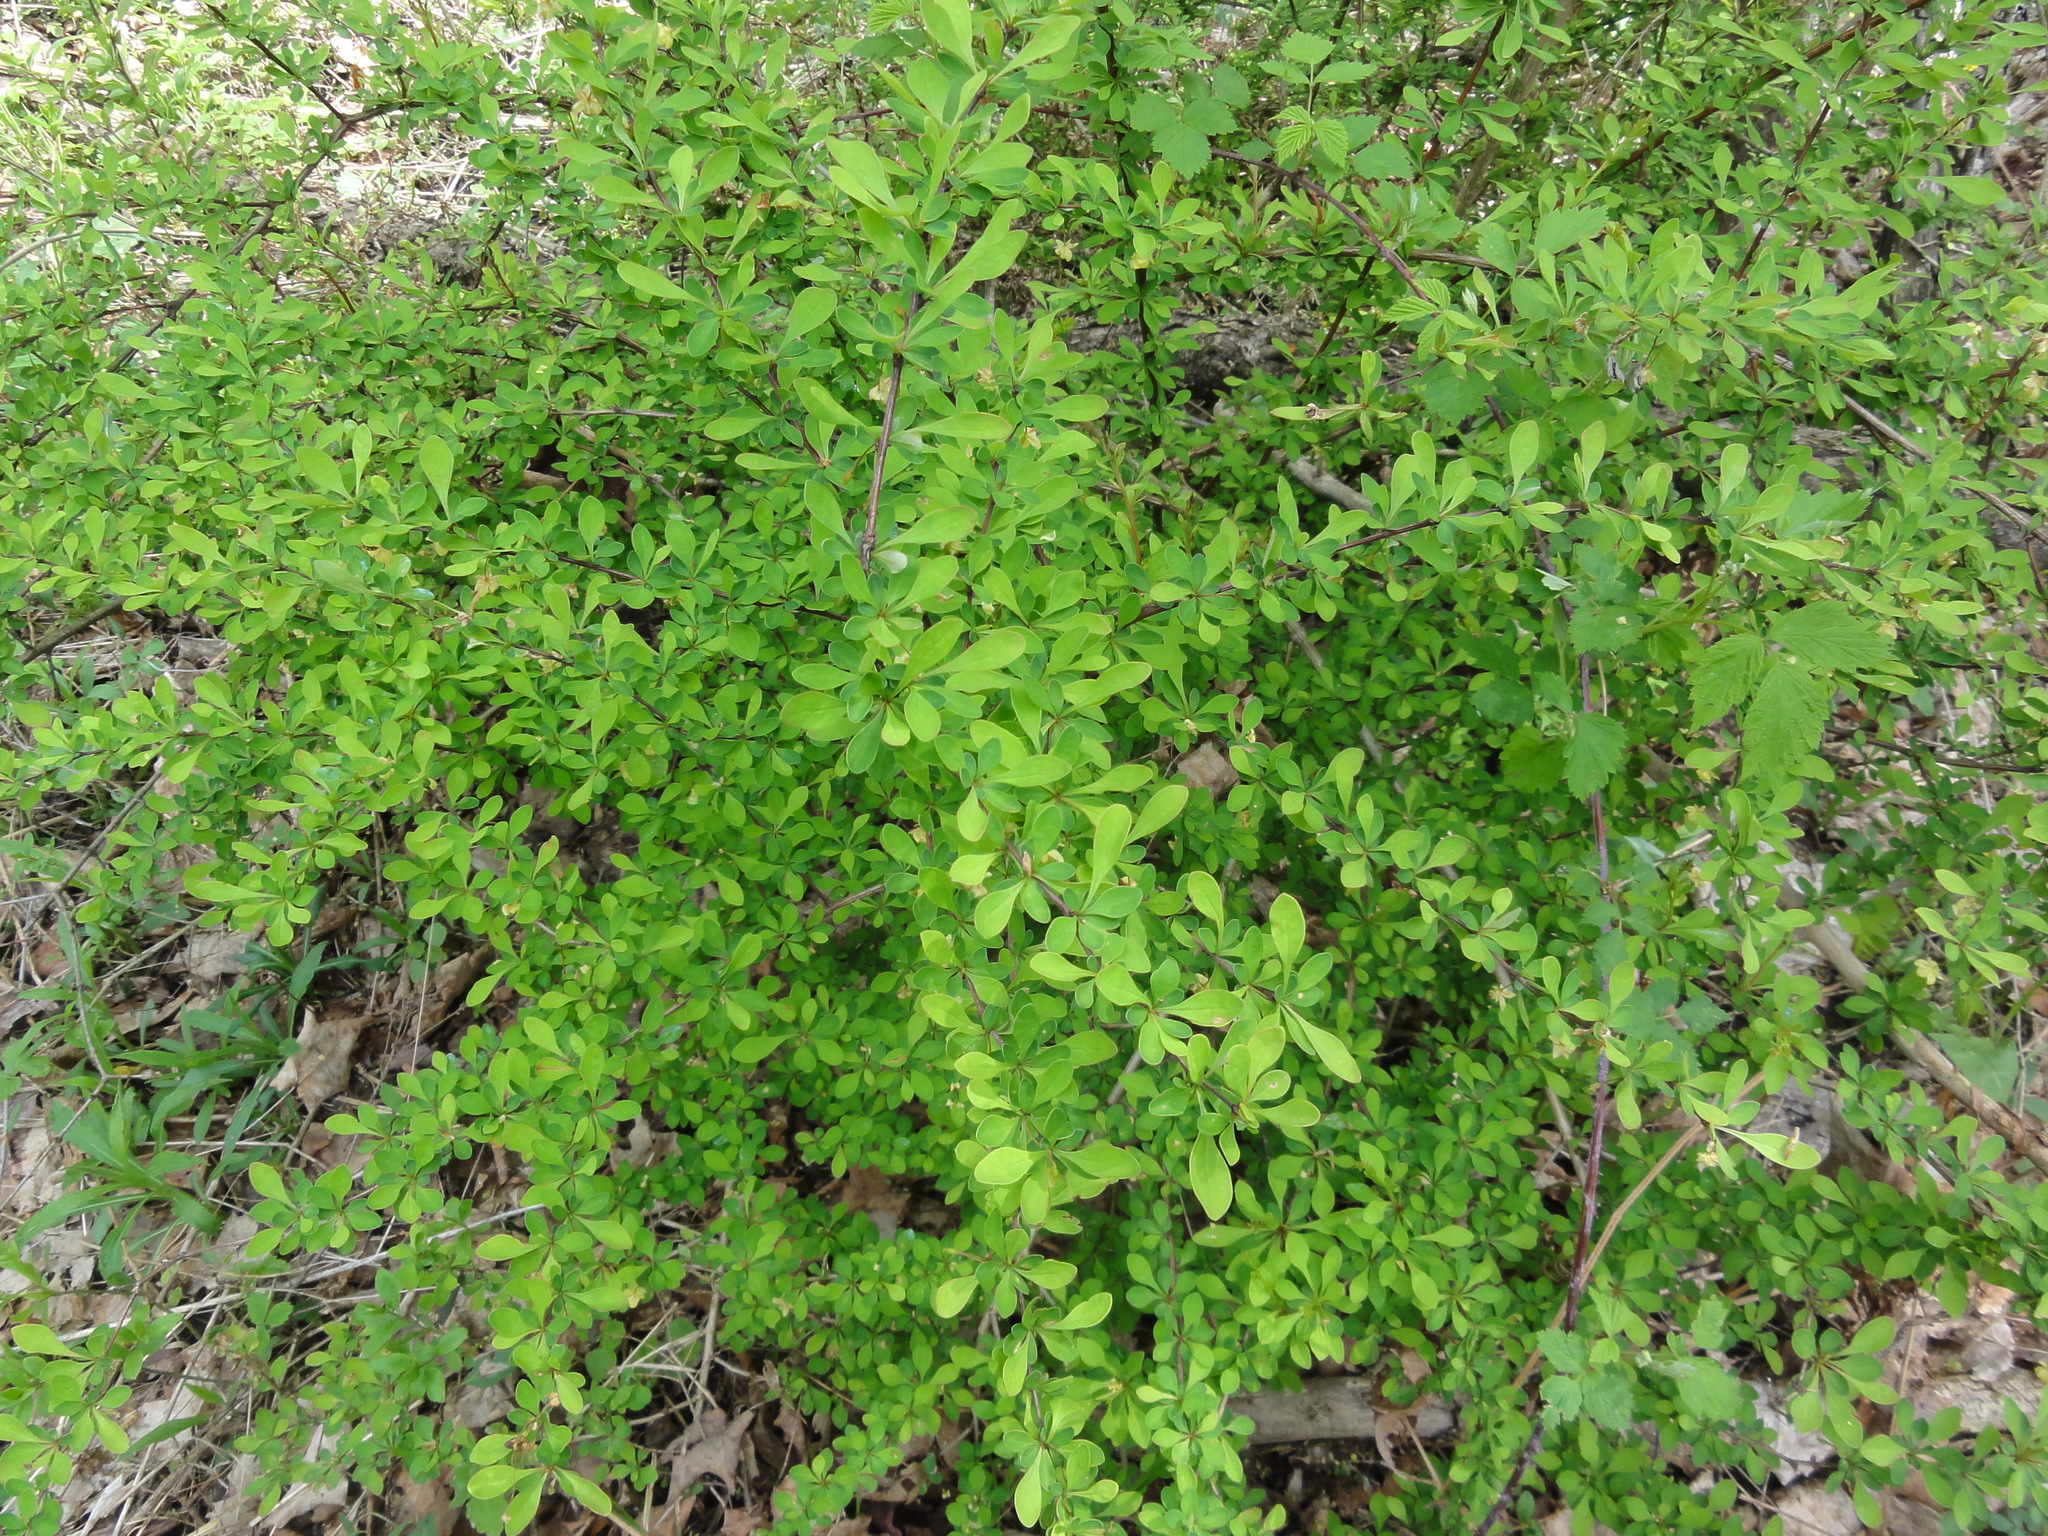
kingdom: Plantae
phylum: Tracheophyta
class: Magnoliopsida
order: Ranunculales
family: Berberidaceae
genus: Berberis
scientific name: Berberis thunbergii
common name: Japanese barberry
